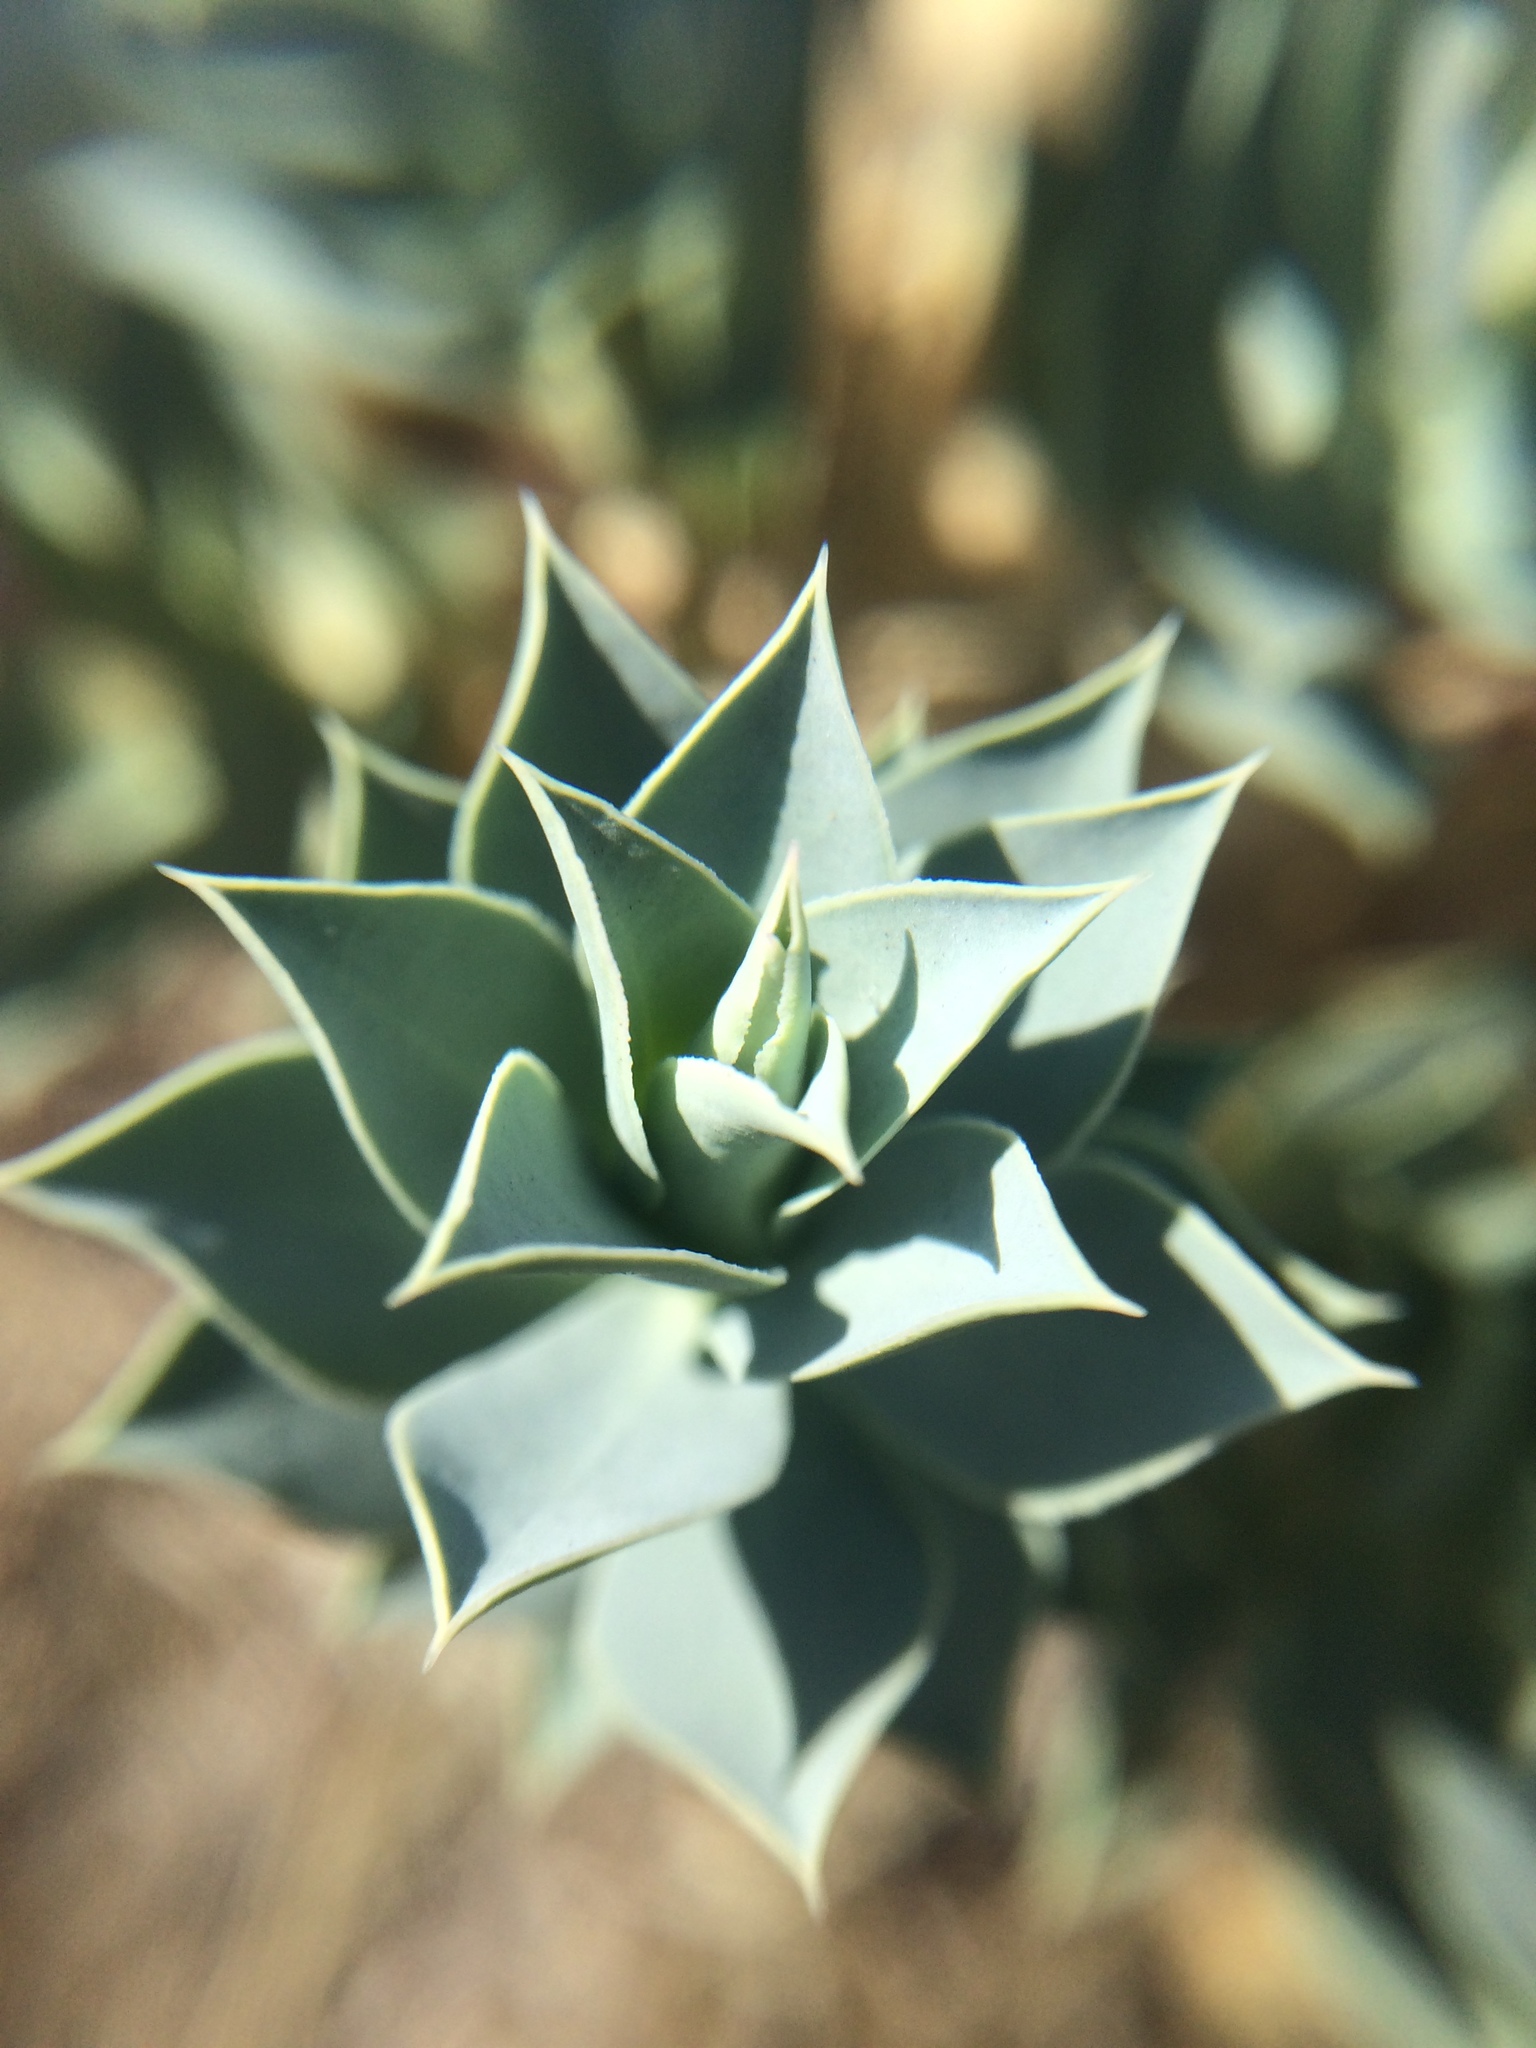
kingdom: Plantae
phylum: Tracheophyta
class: Magnoliopsida
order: Malpighiales
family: Euphorbiaceae
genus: Euphorbia
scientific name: Euphorbia myrsinites
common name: Myrtle spurge
